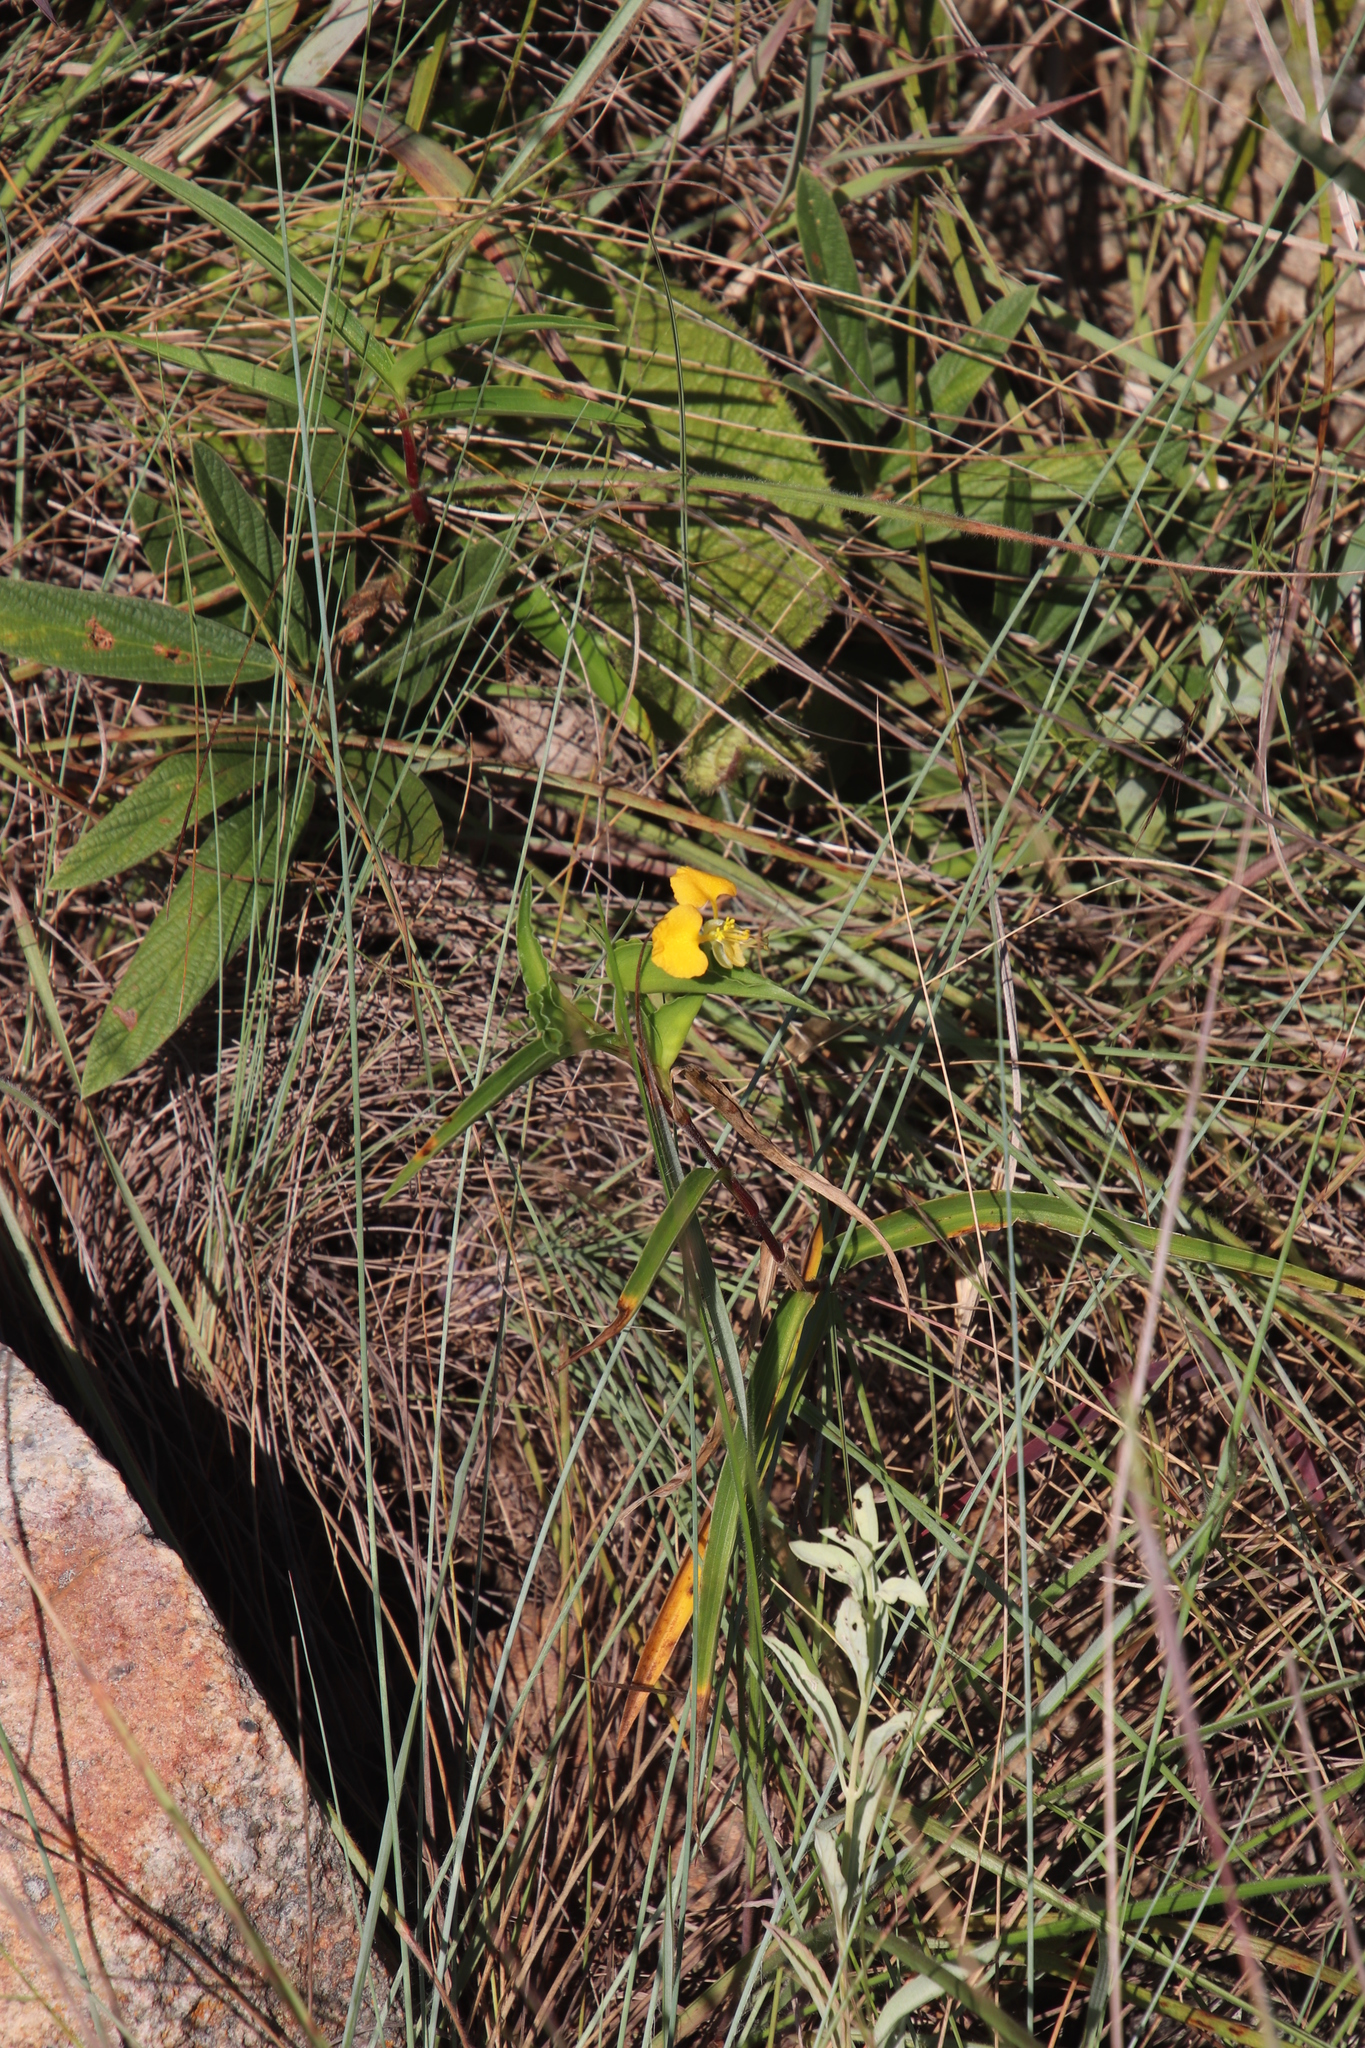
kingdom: Plantae
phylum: Tracheophyta
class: Liliopsida
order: Commelinales
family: Commelinaceae
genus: Commelina
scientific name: Commelina africana
